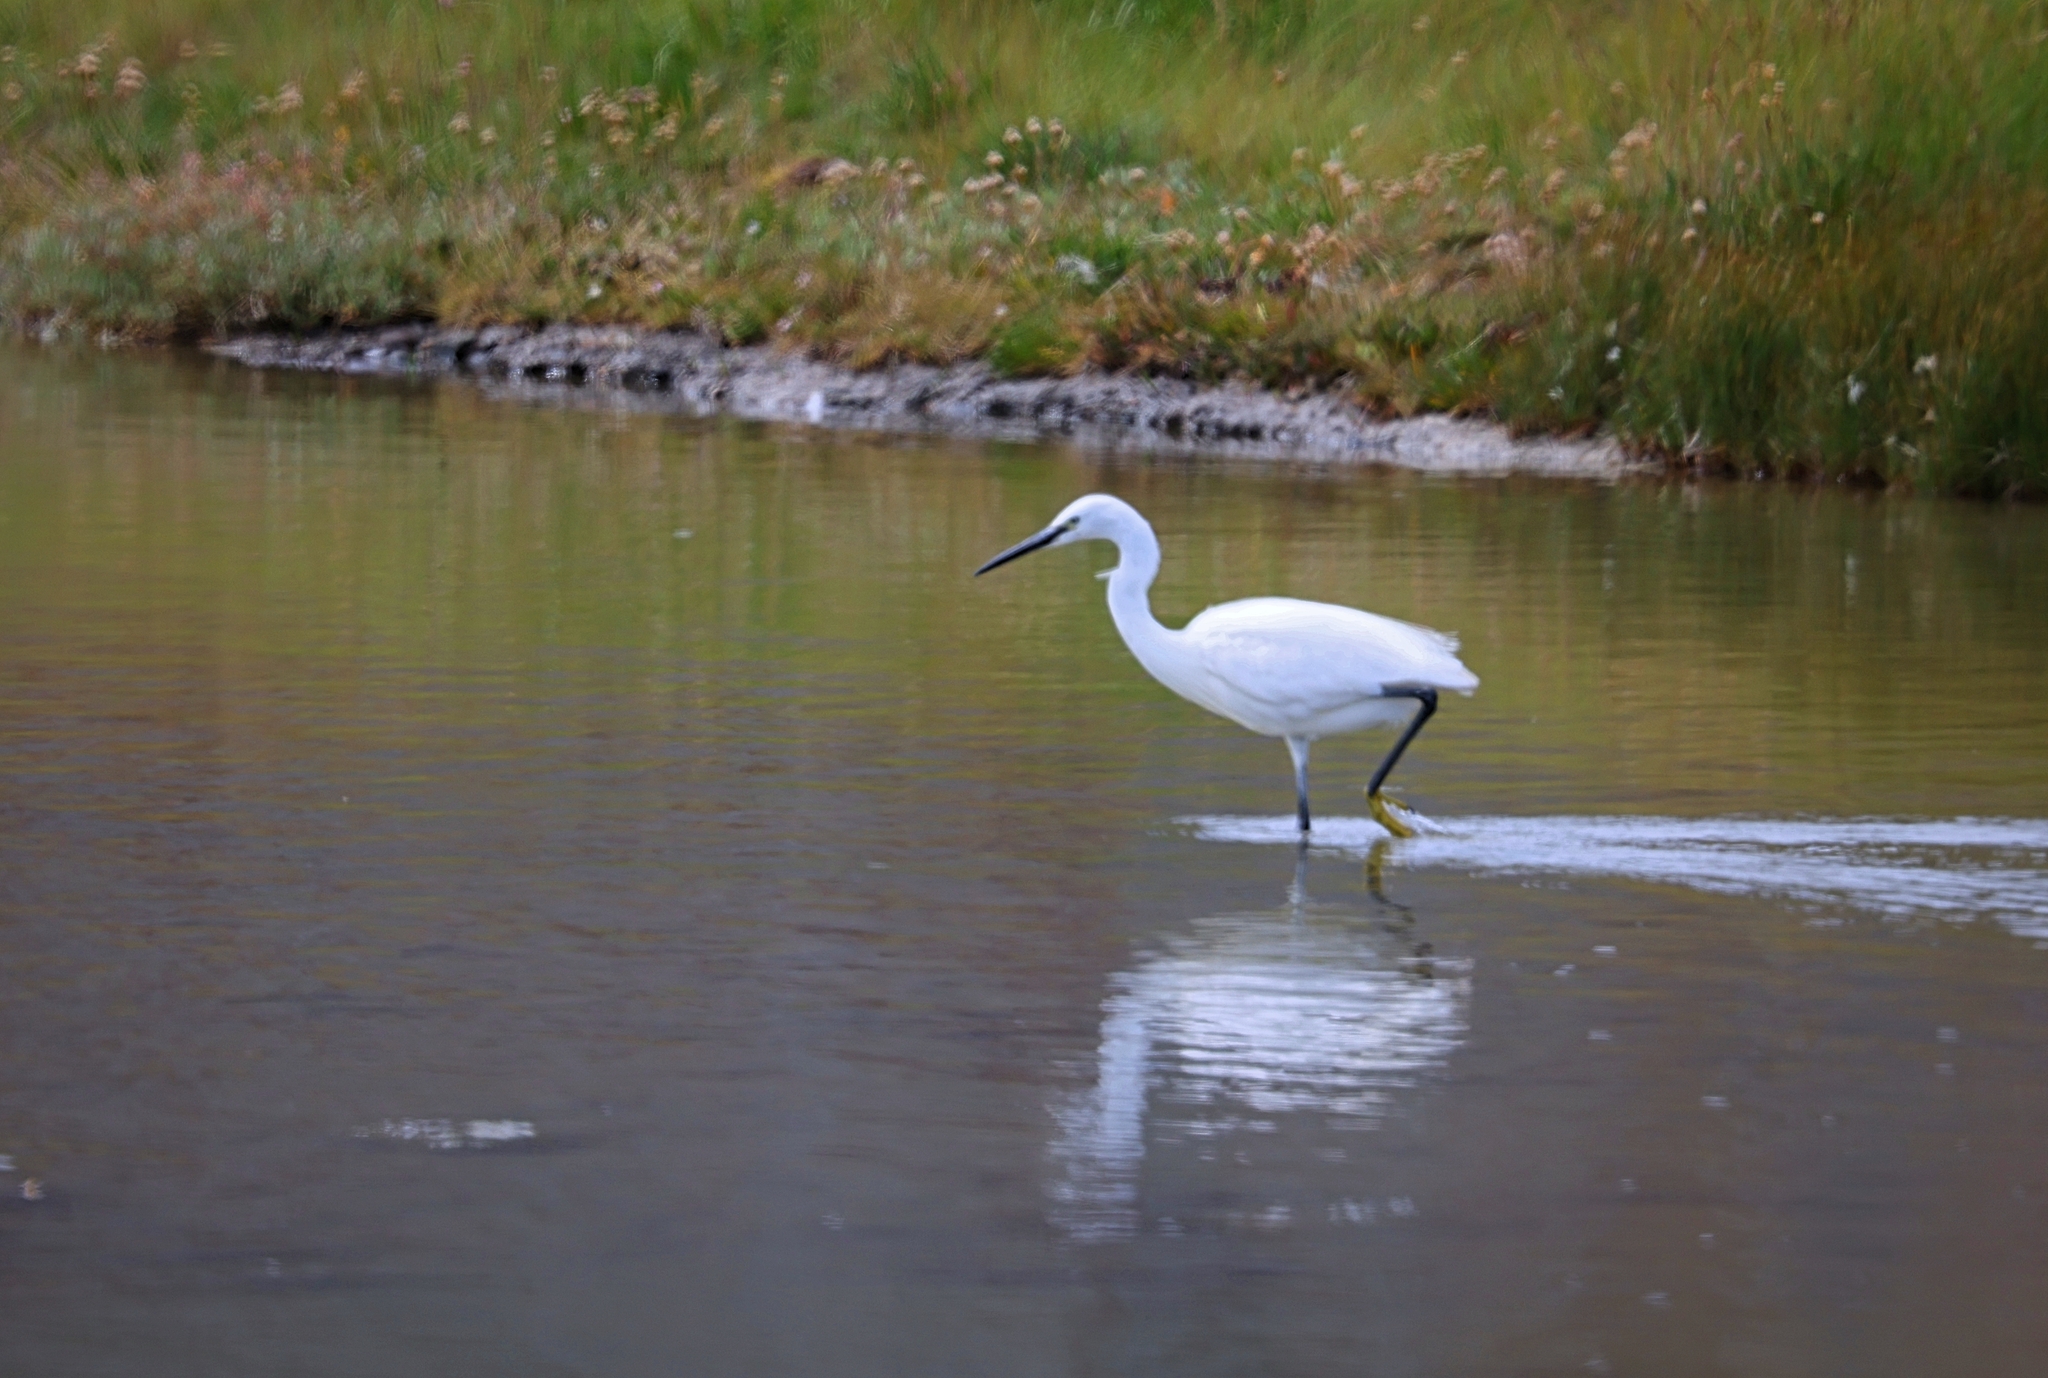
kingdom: Animalia
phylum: Chordata
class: Aves
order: Pelecaniformes
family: Ardeidae
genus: Egretta
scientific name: Egretta garzetta
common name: Little egret
